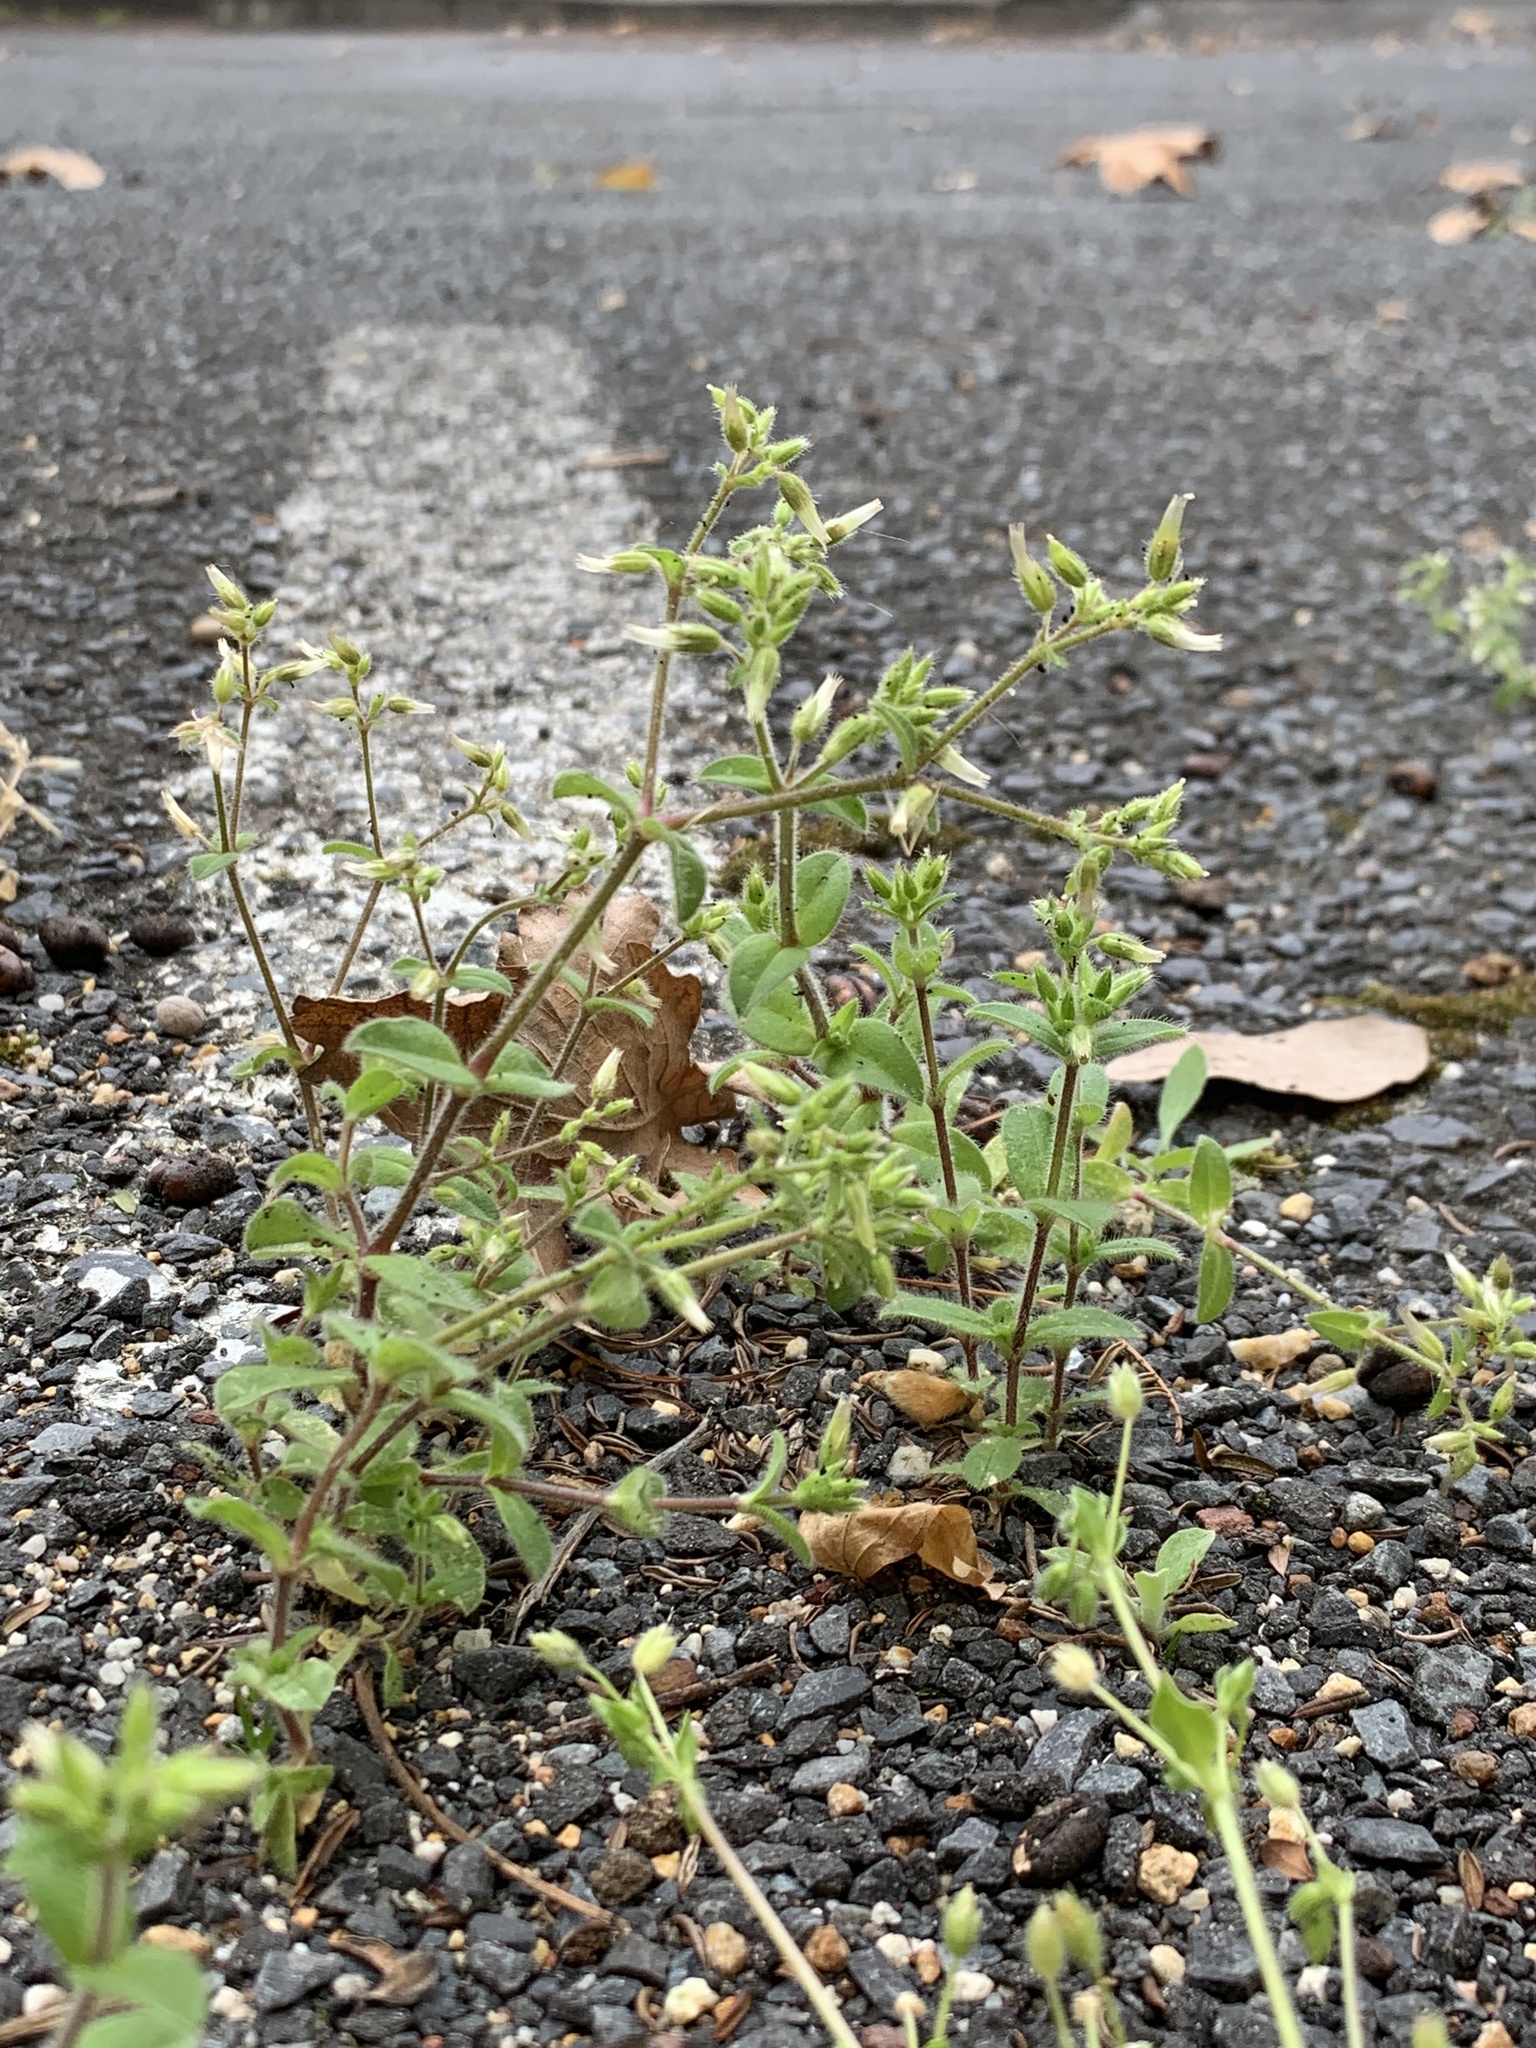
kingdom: Plantae
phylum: Tracheophyta
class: Magnoliopsida
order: Caryophyllales
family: Caryophyllaceae
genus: Cerastium
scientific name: Cerastium glomeratum
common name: Sticky chickweed
